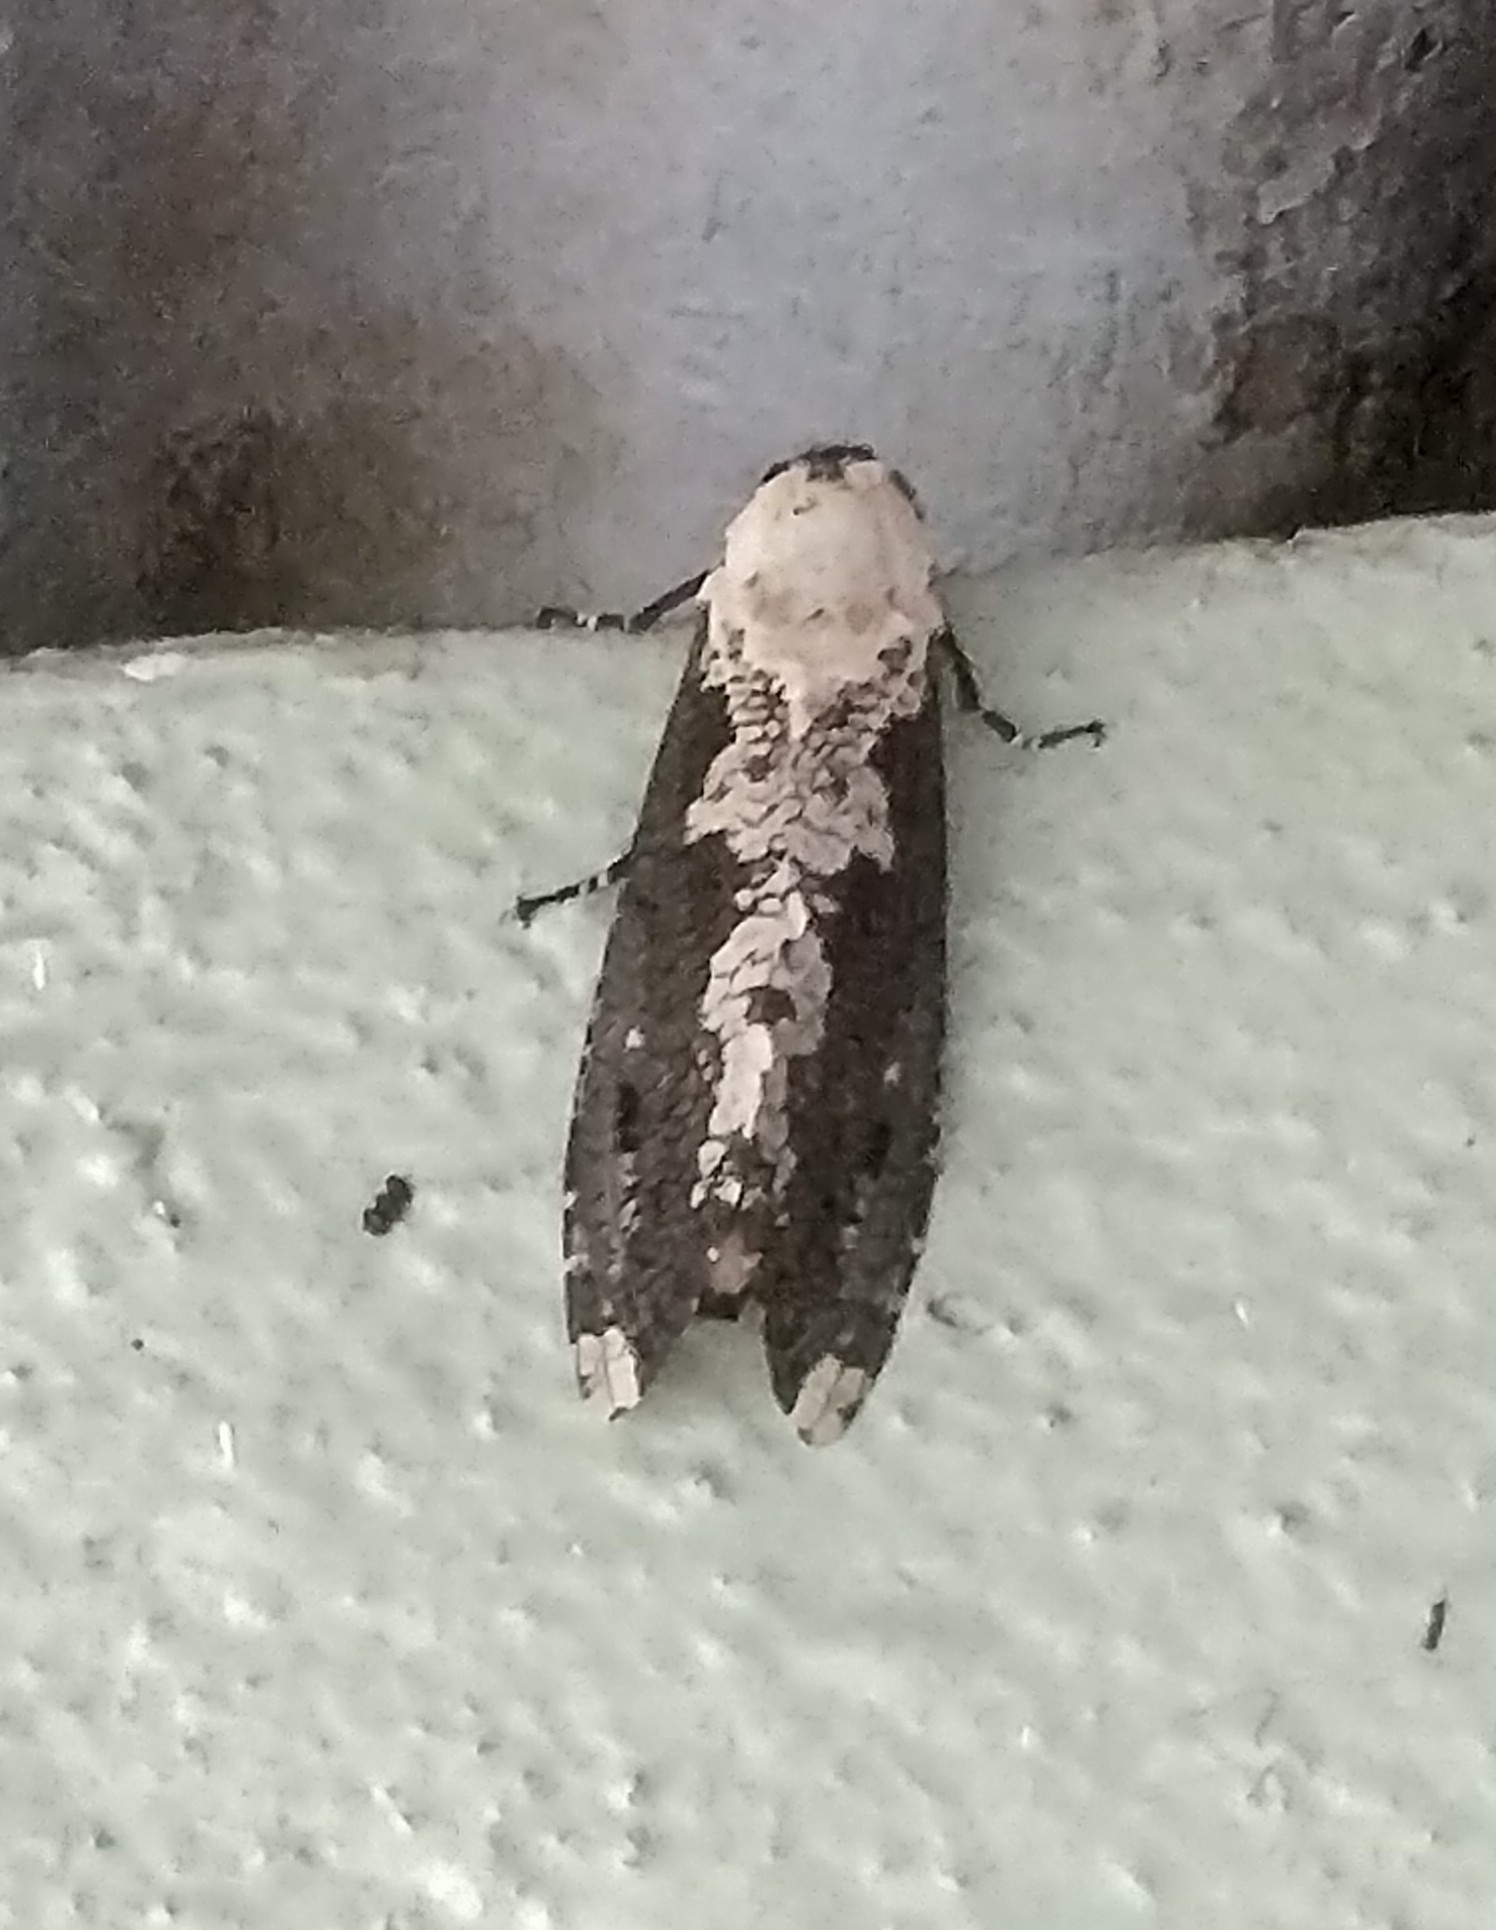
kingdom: Animalia
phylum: Arthropoda
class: Insecta
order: Lepidoptera
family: Cossidae
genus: Xyleutes
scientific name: Xyleutes persona
